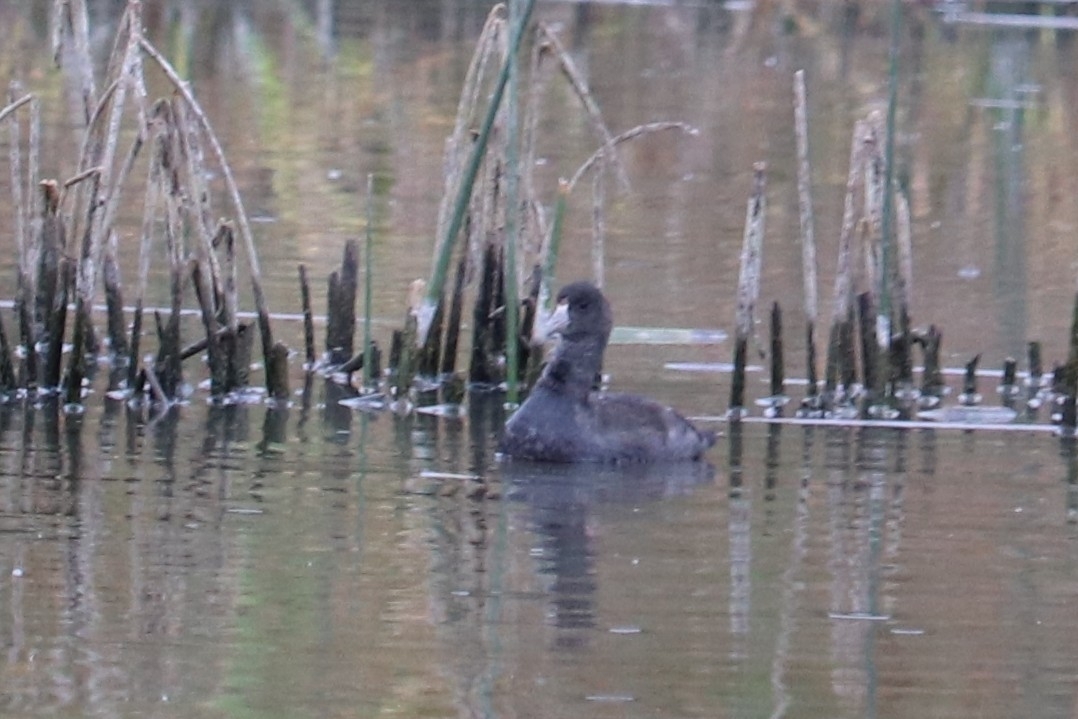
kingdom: Animalia
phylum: Chordata
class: Aves
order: Gruiformes
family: Rallidae
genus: Fulica
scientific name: Fulica americana
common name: American coot
